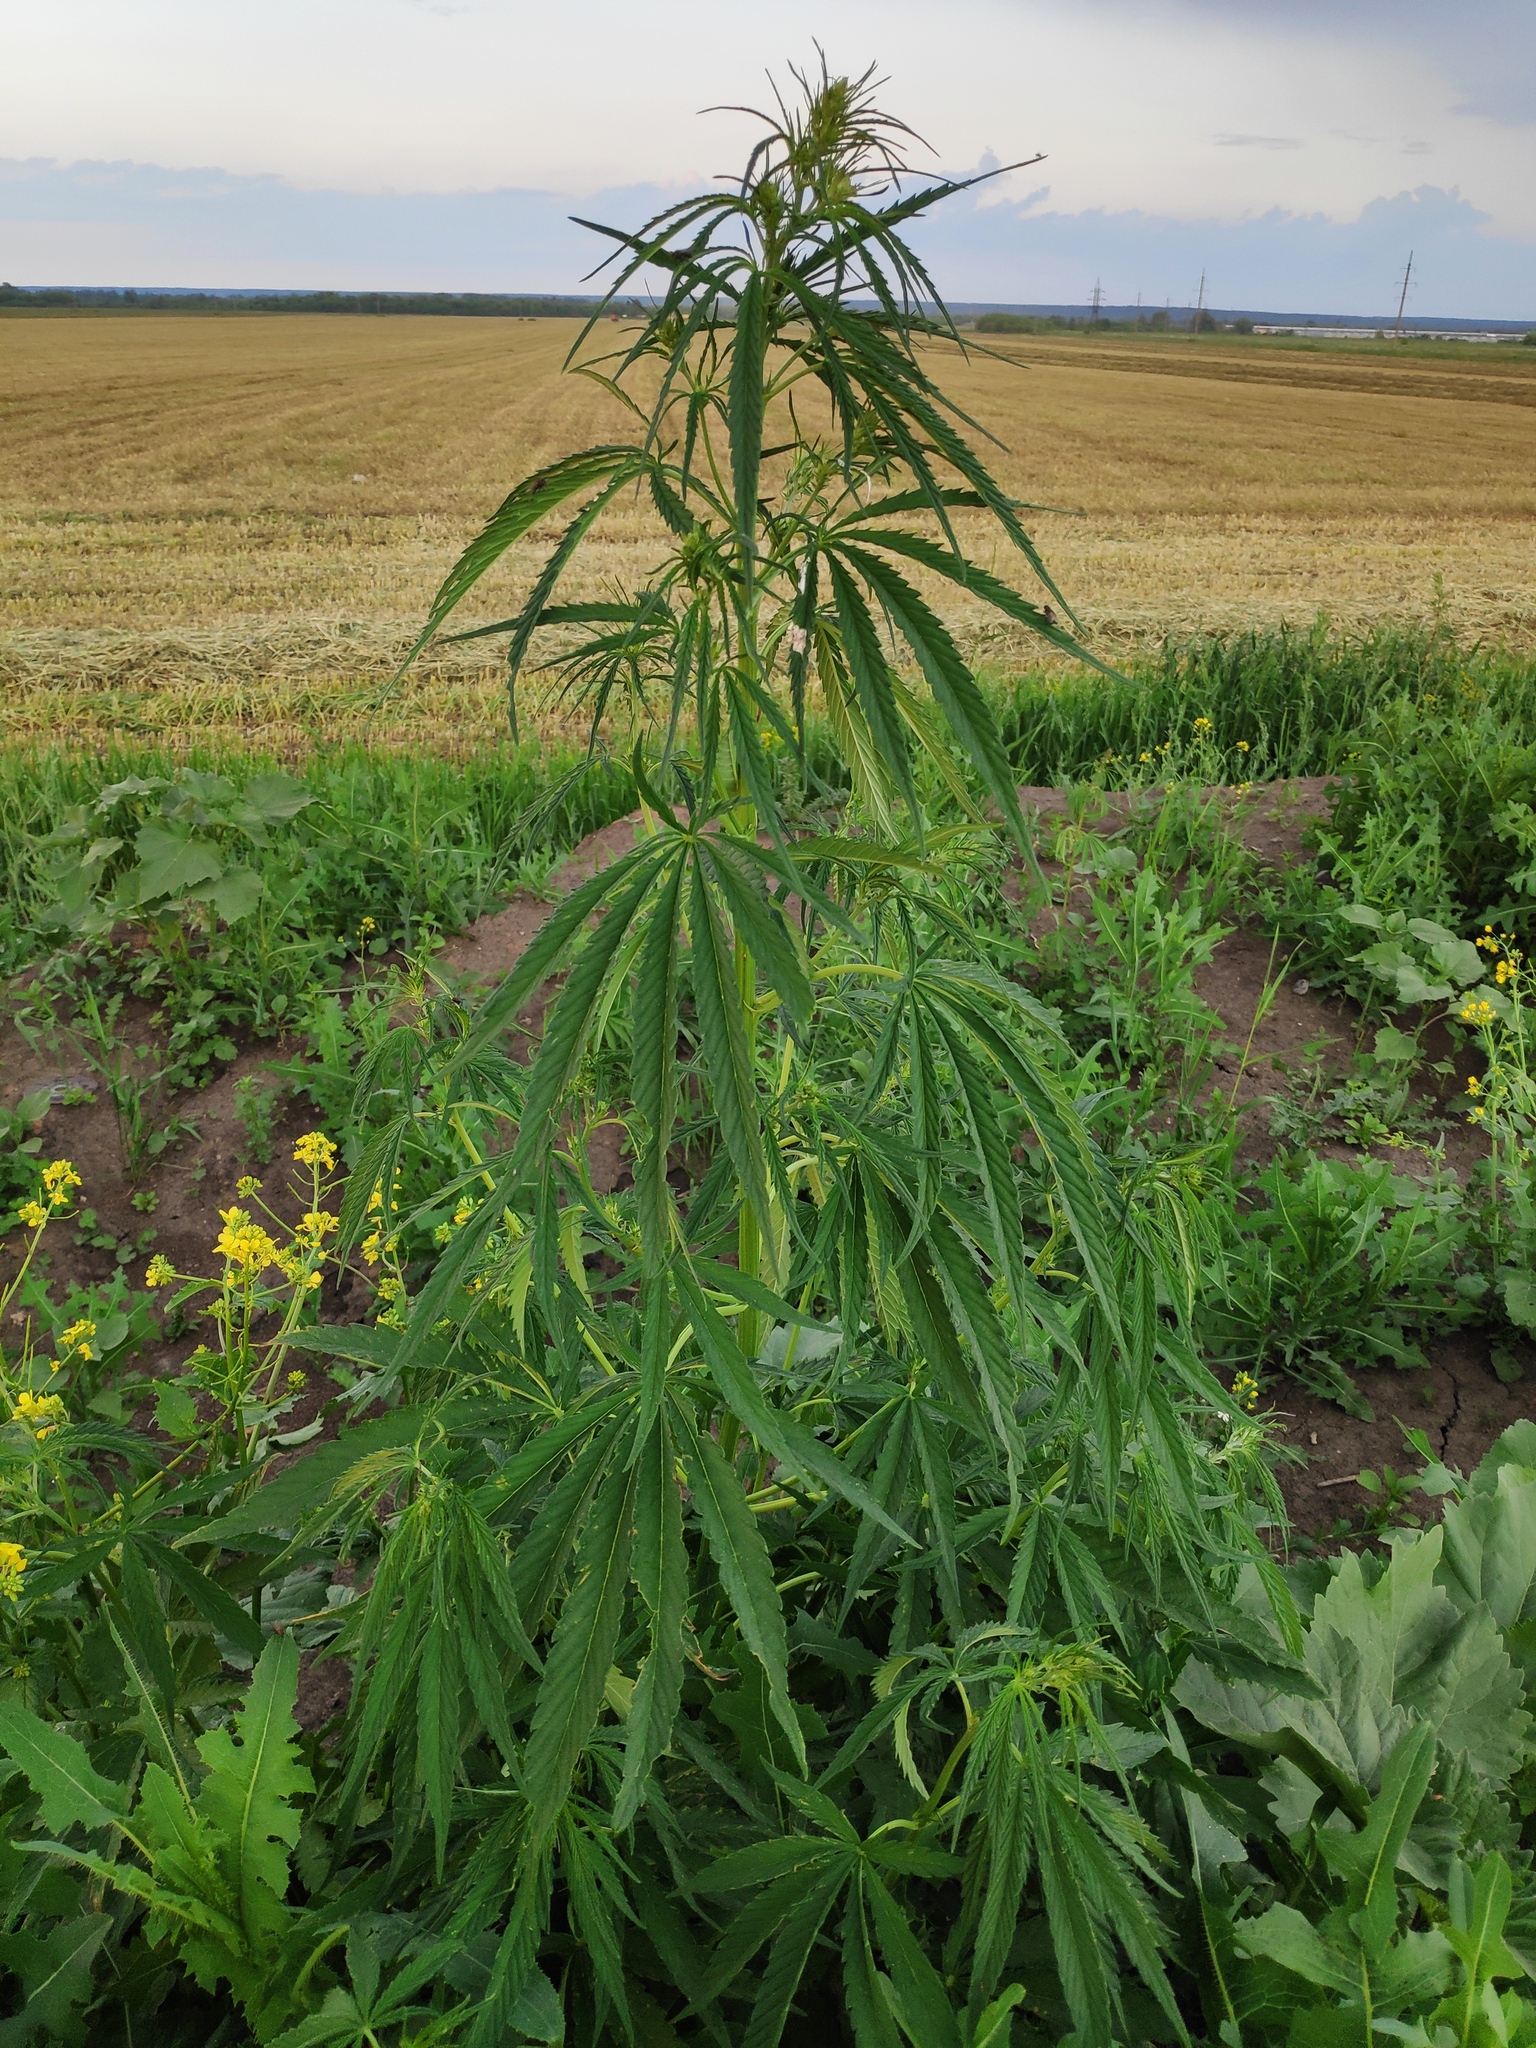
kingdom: Plantae
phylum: Tracheophyta
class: Magnoliopsida
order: Rosales
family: Cannabaceae
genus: Cannabis
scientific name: Cannabis sativa
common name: Hemp
